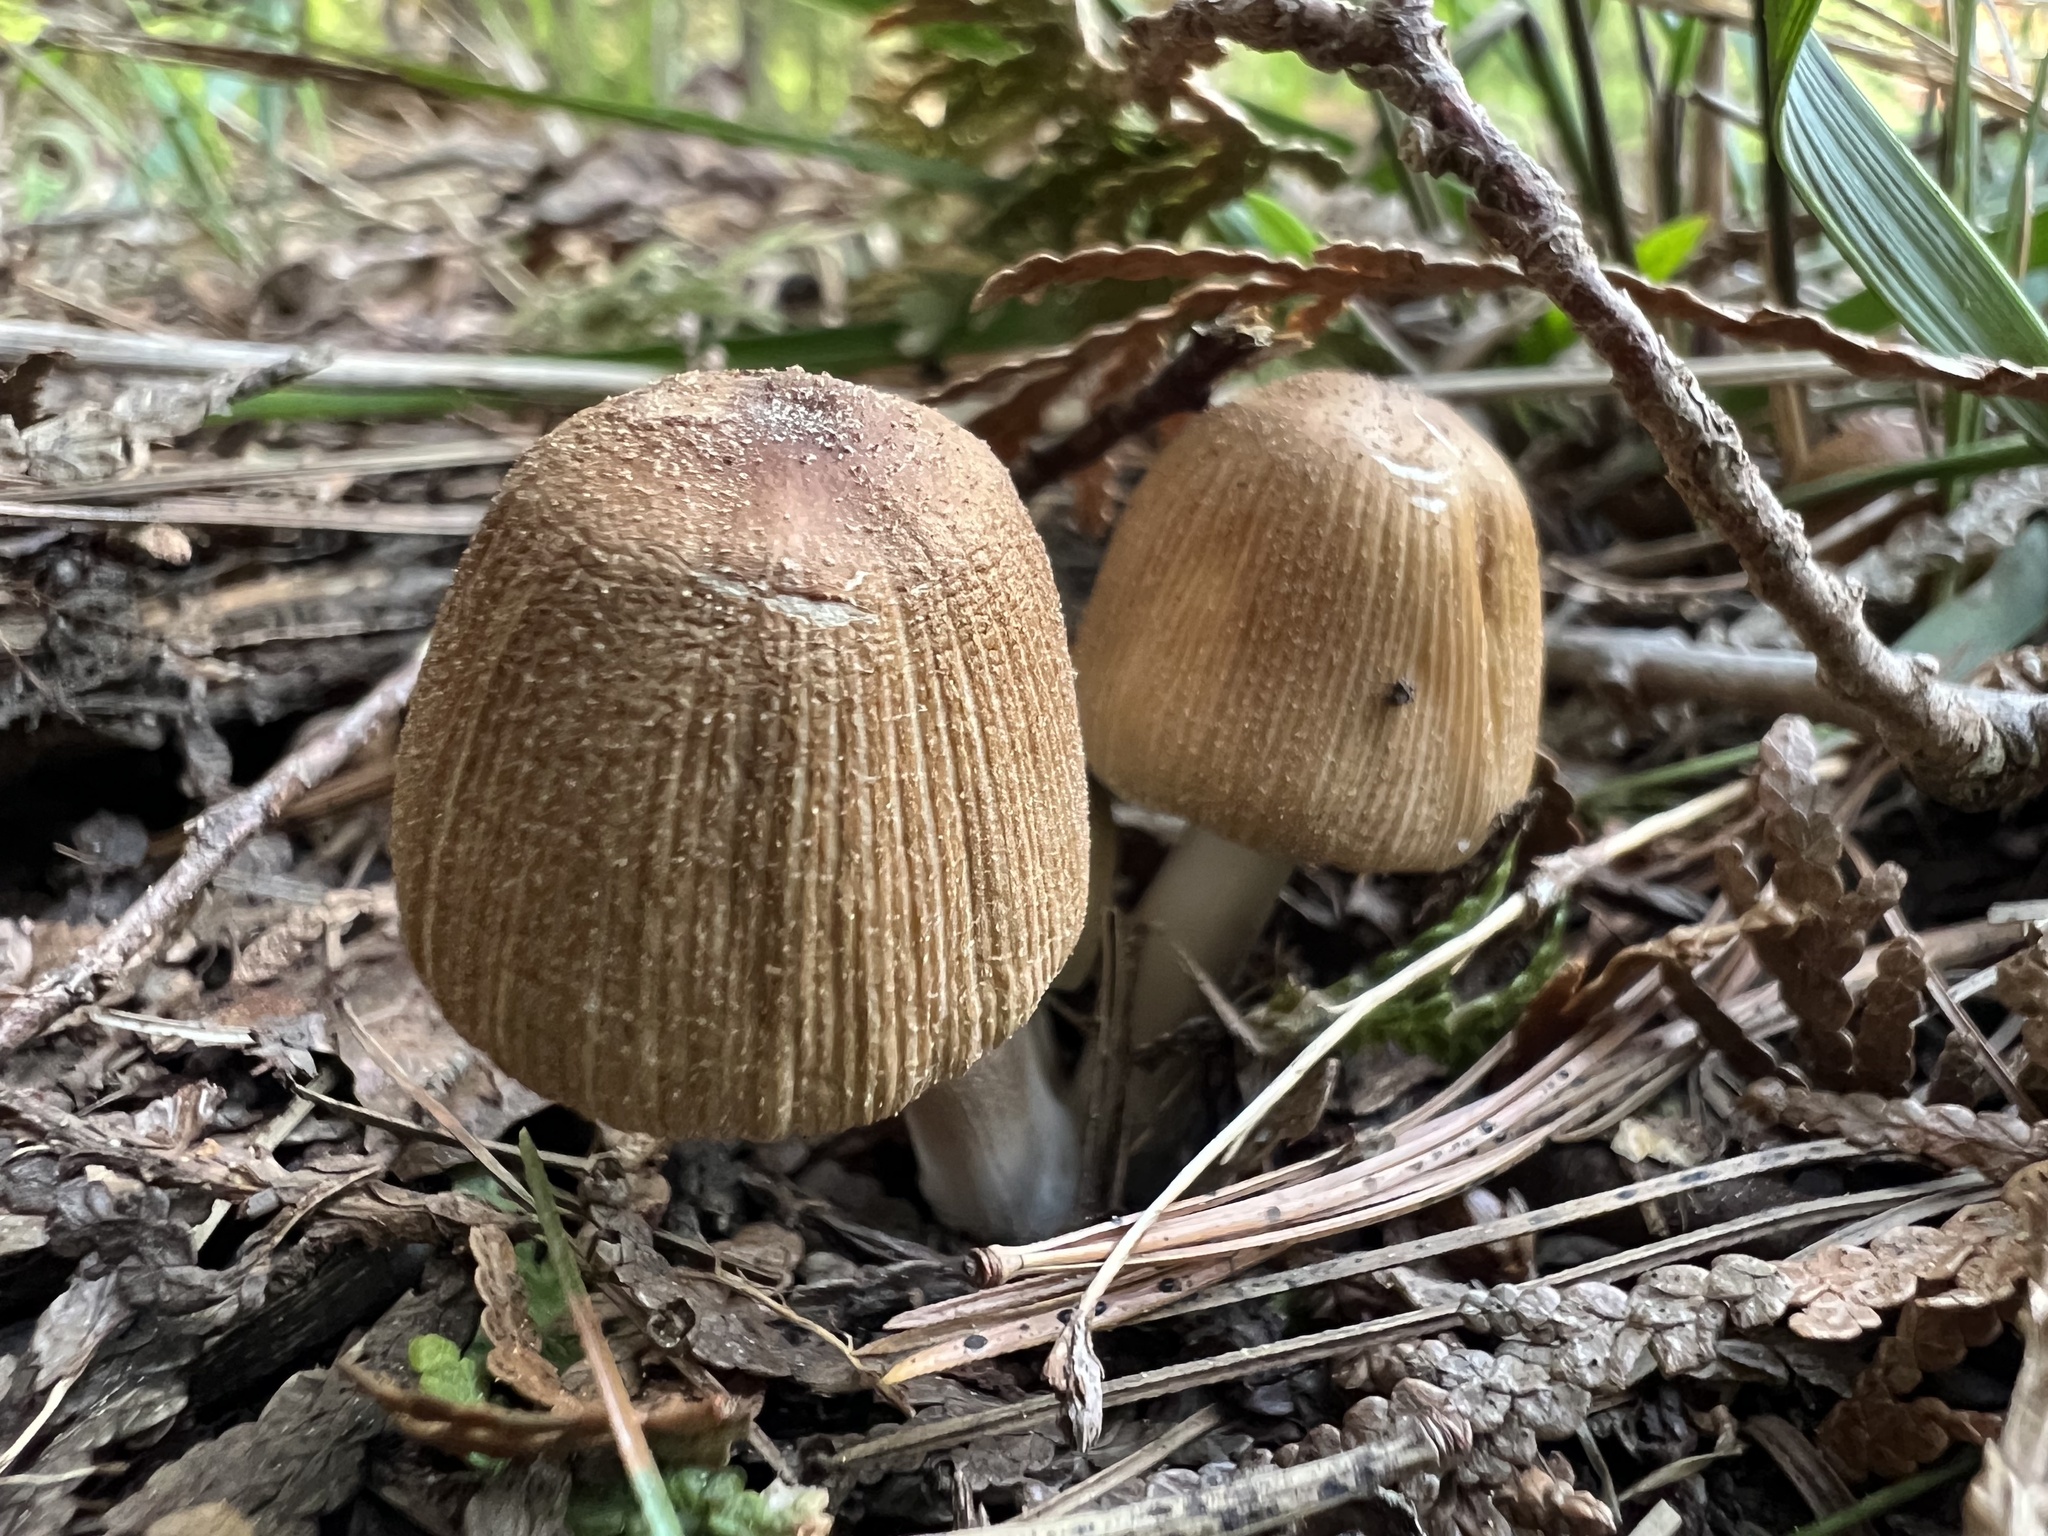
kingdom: Fungi
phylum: Basidiomycota
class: Agaricomycetes
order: Agaricales
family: Psathyrellaceae
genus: Coprinellus
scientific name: Coprinellus micaceus
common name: Glistening ink-cap
